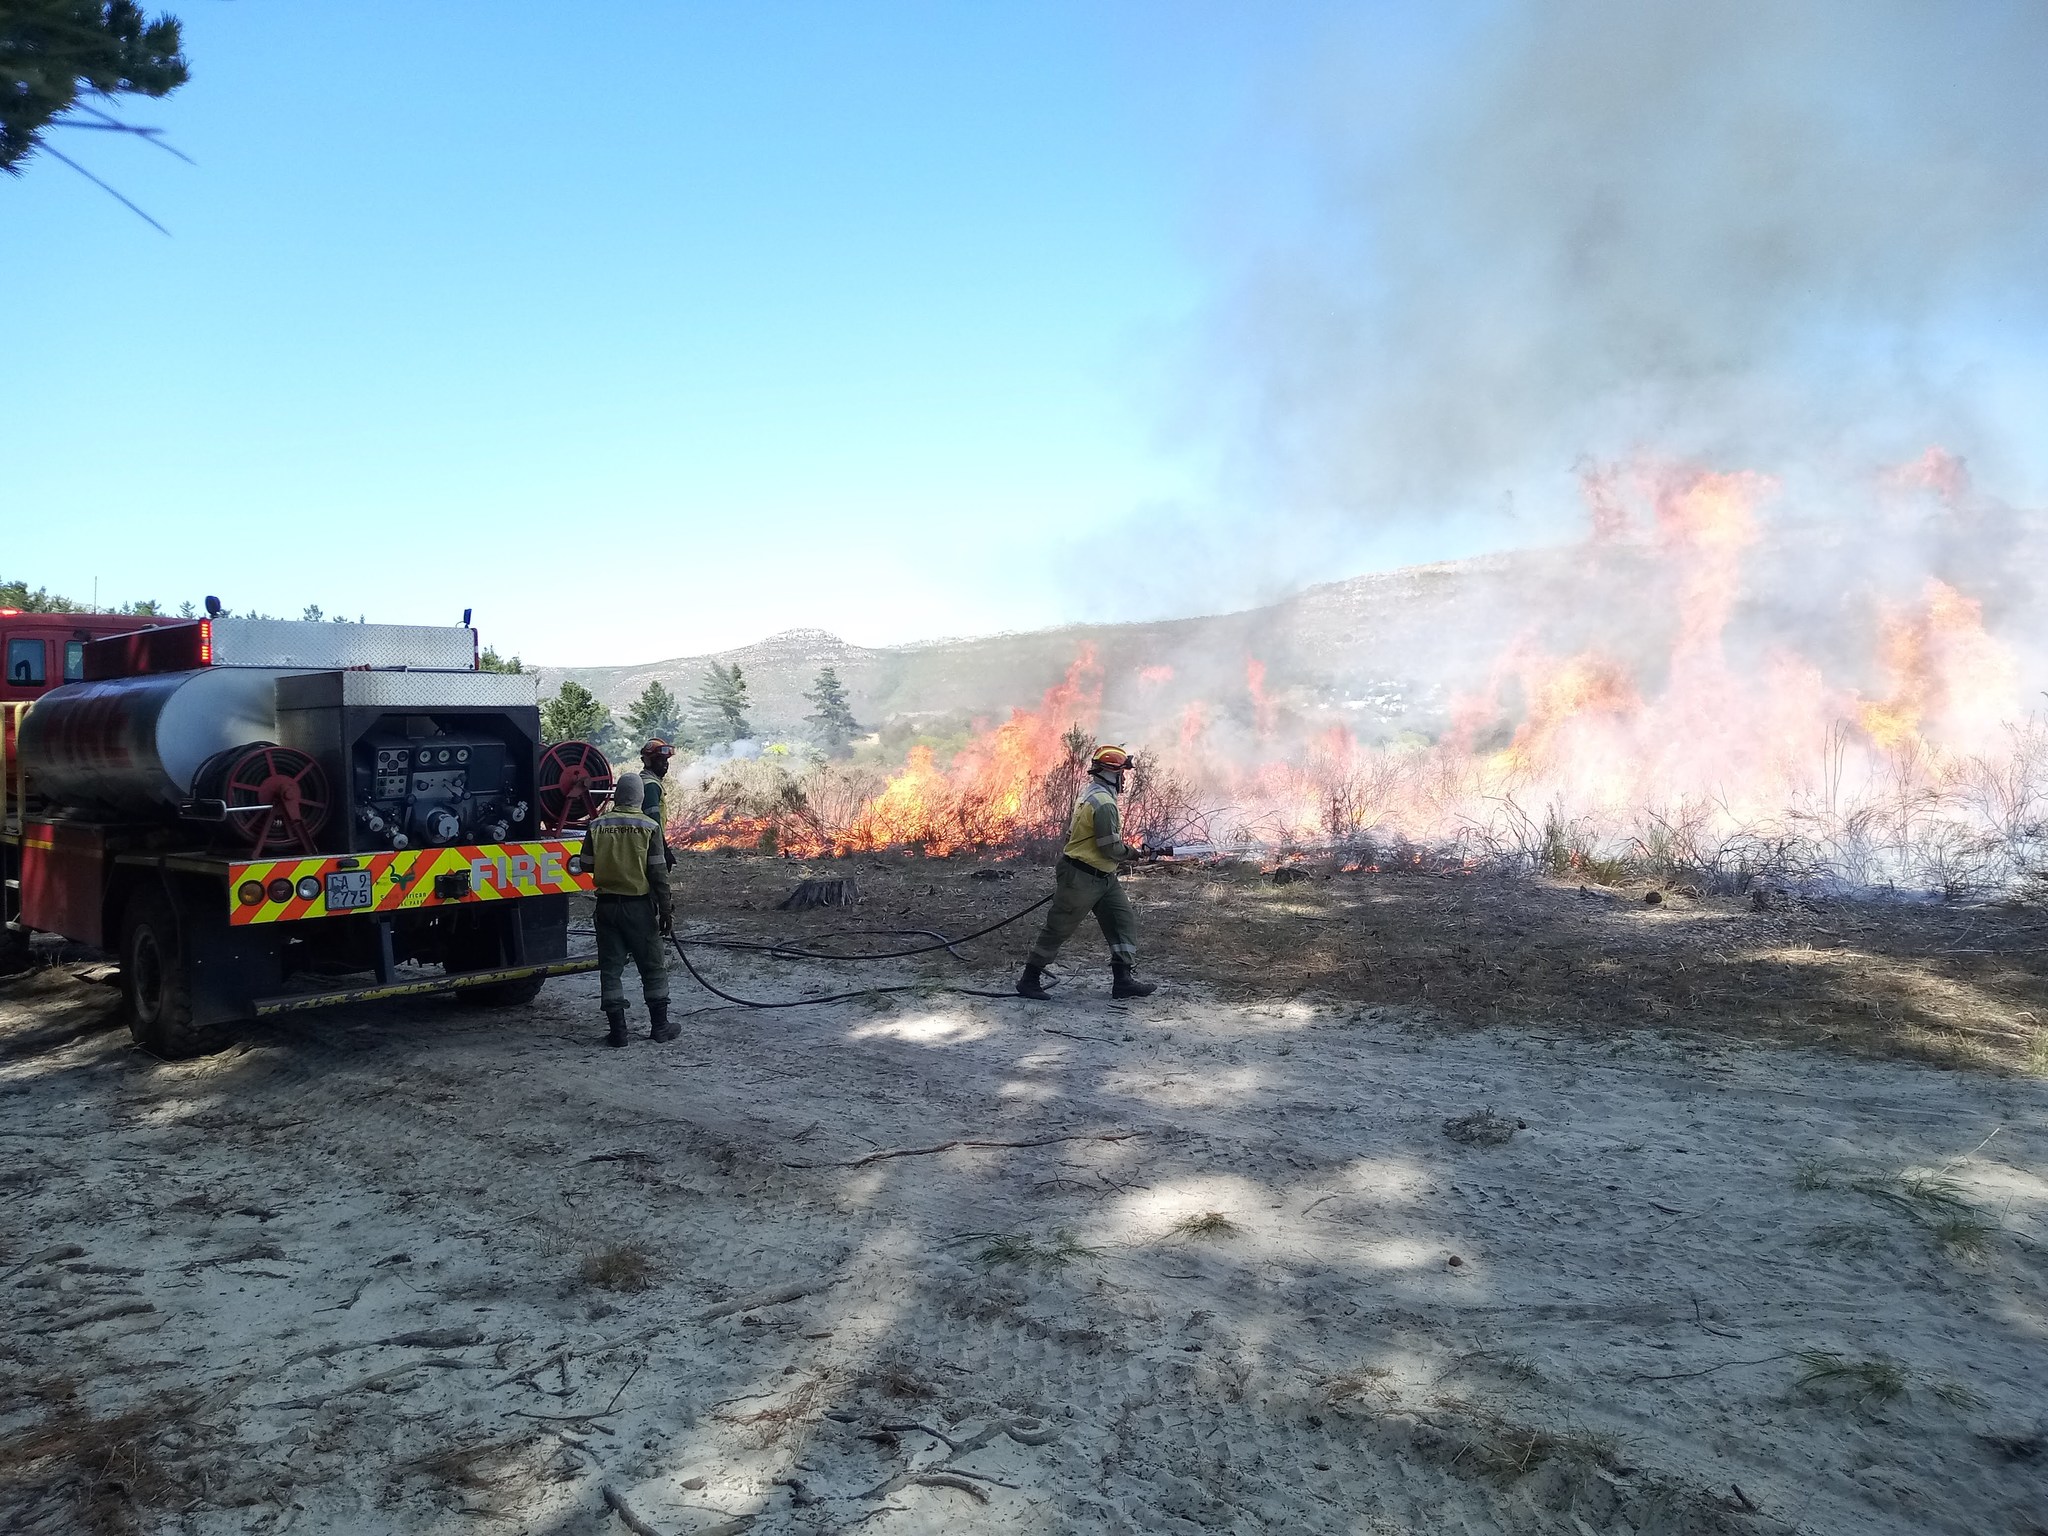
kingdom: Plantae
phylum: Tracheophyta
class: Magnoliopsida
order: Malvales
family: Thymelaeaceae
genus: Passerina
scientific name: Passerina corymbosa
